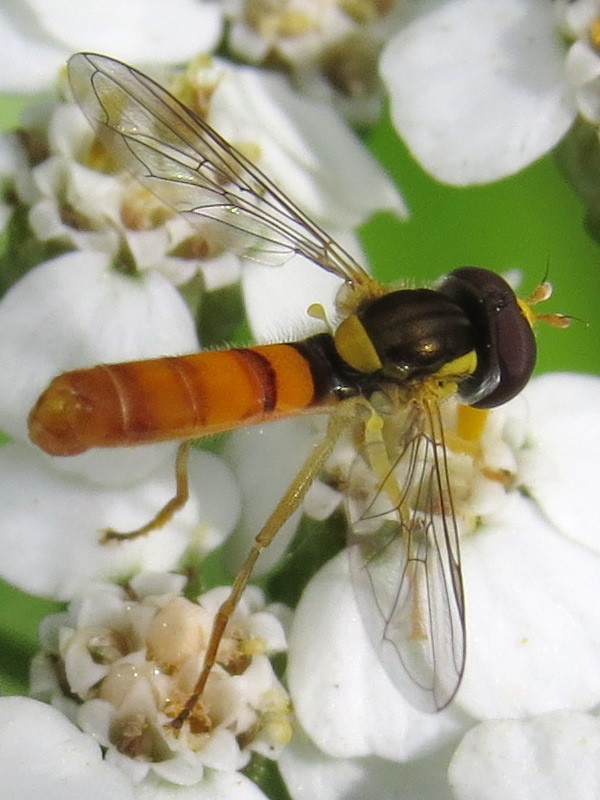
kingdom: Animalia
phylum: Arthropoda
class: Insecta
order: Diptera
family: Syrphidae
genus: Sphaerophoria
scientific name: Sphaerophoria contigua
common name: Tufted globetail
